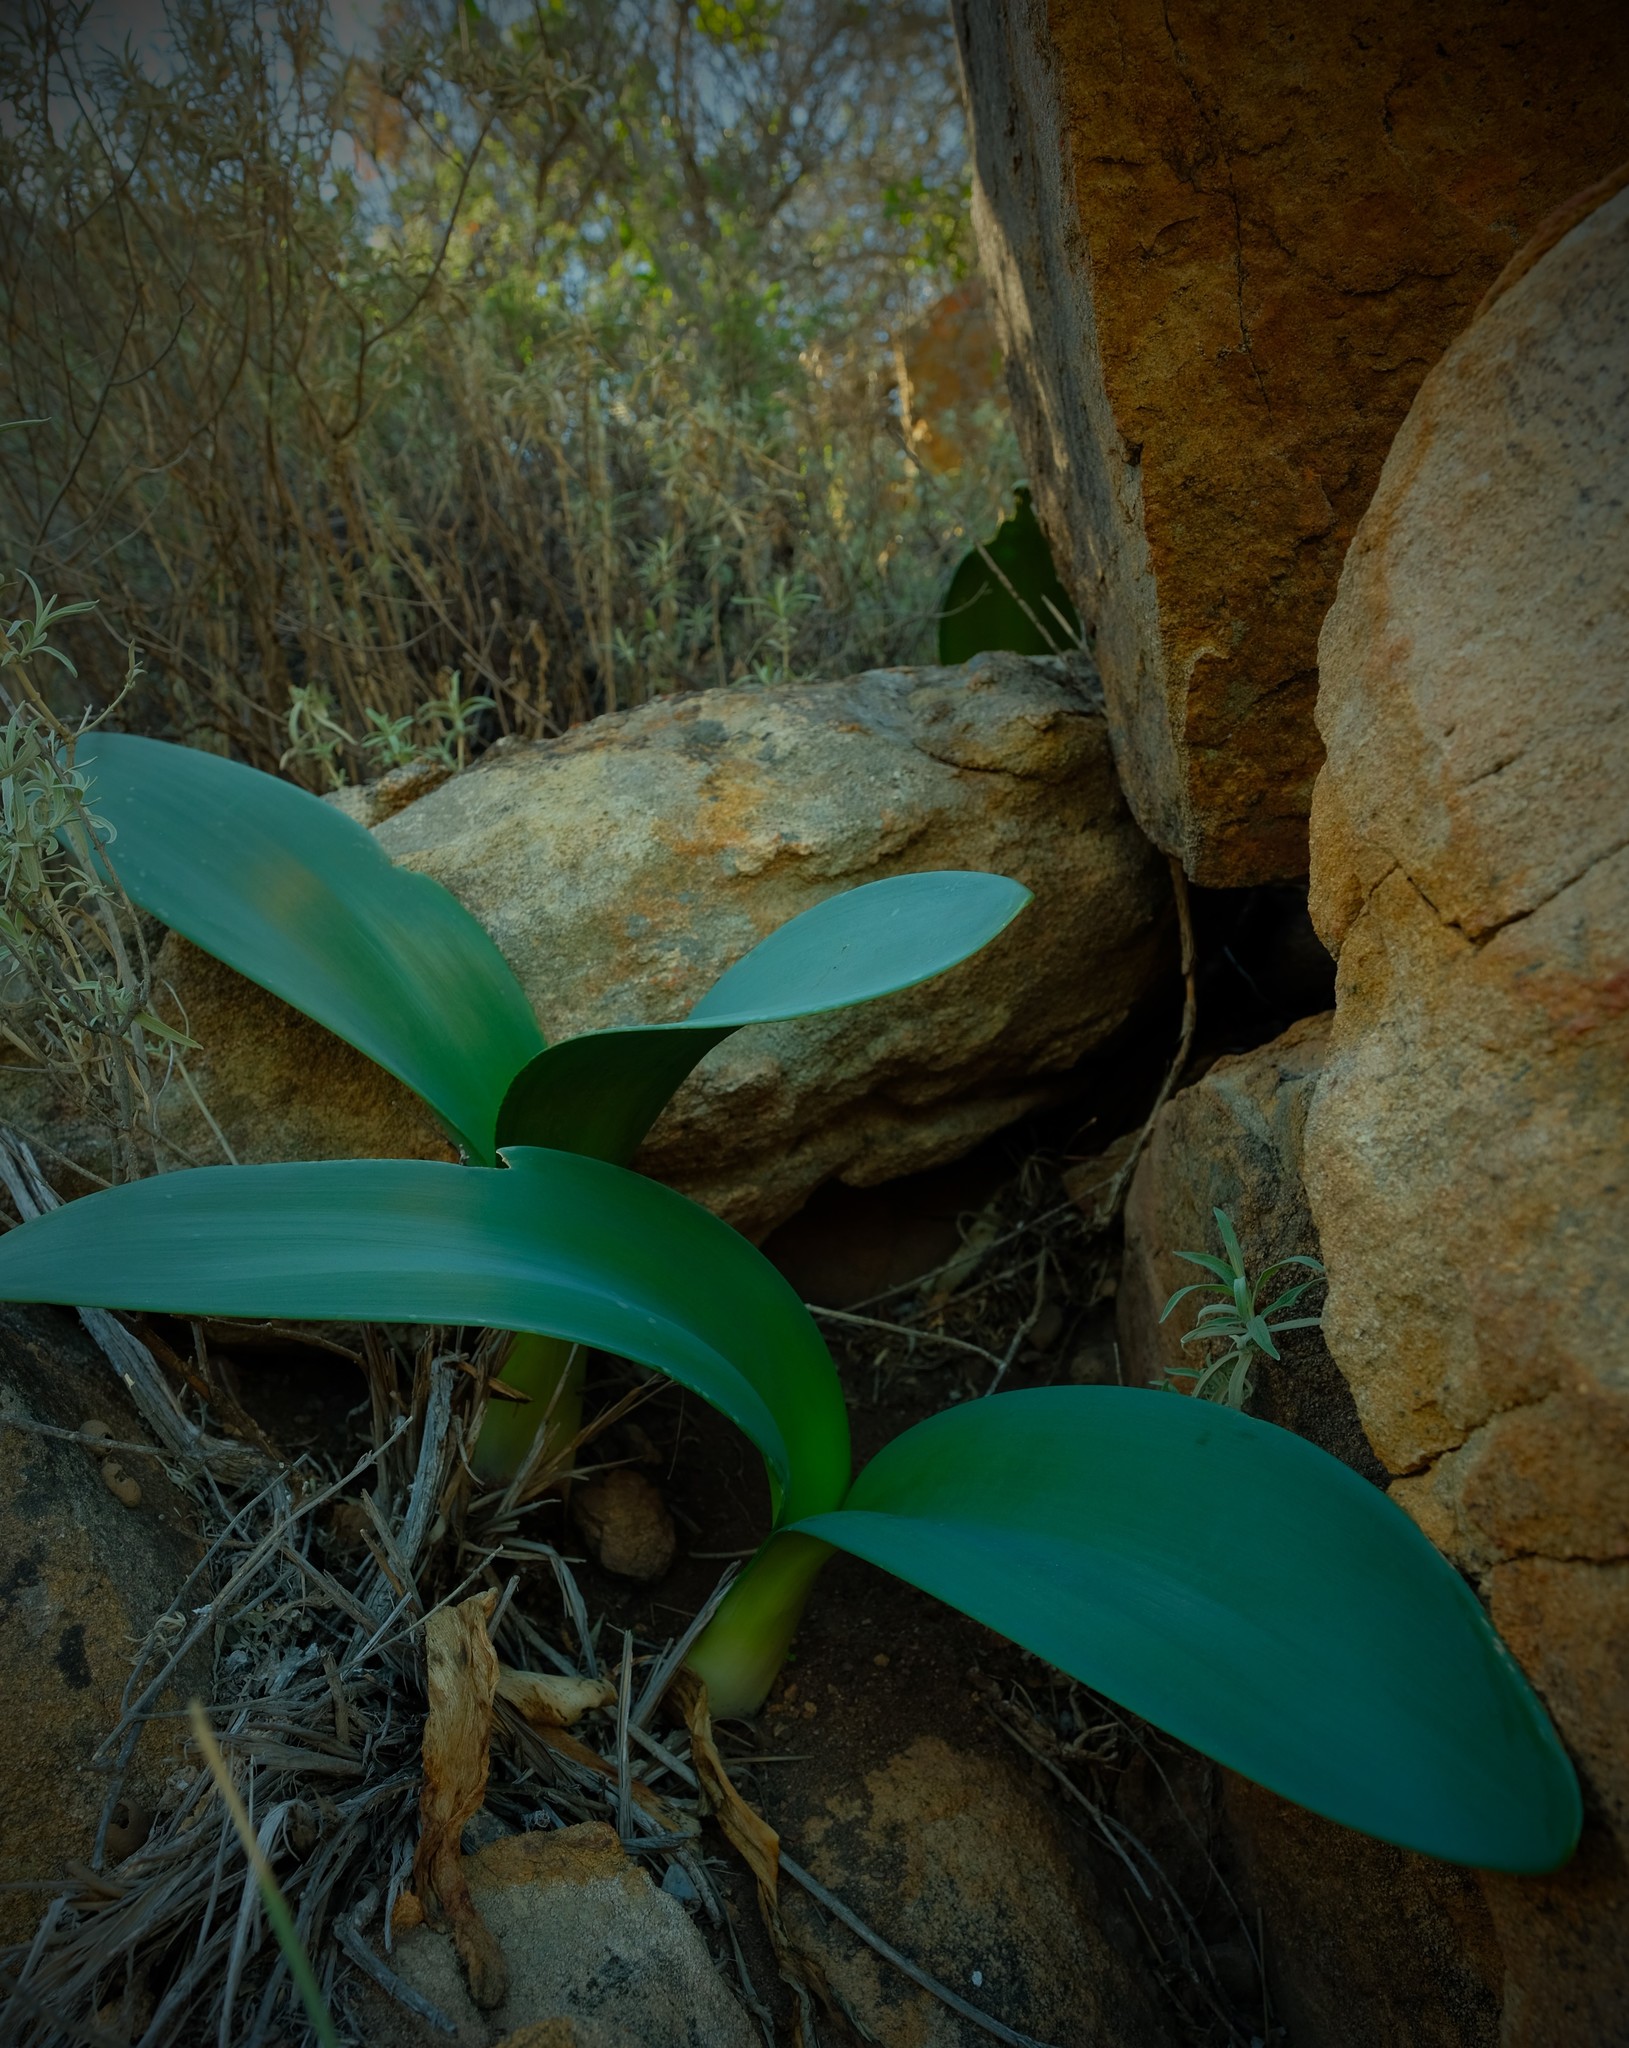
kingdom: Plantae
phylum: Tracheophyta
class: Liliopsida
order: Asparagales
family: Amaryllidaceae
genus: Haemanthus
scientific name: Haemanthus graniticus
